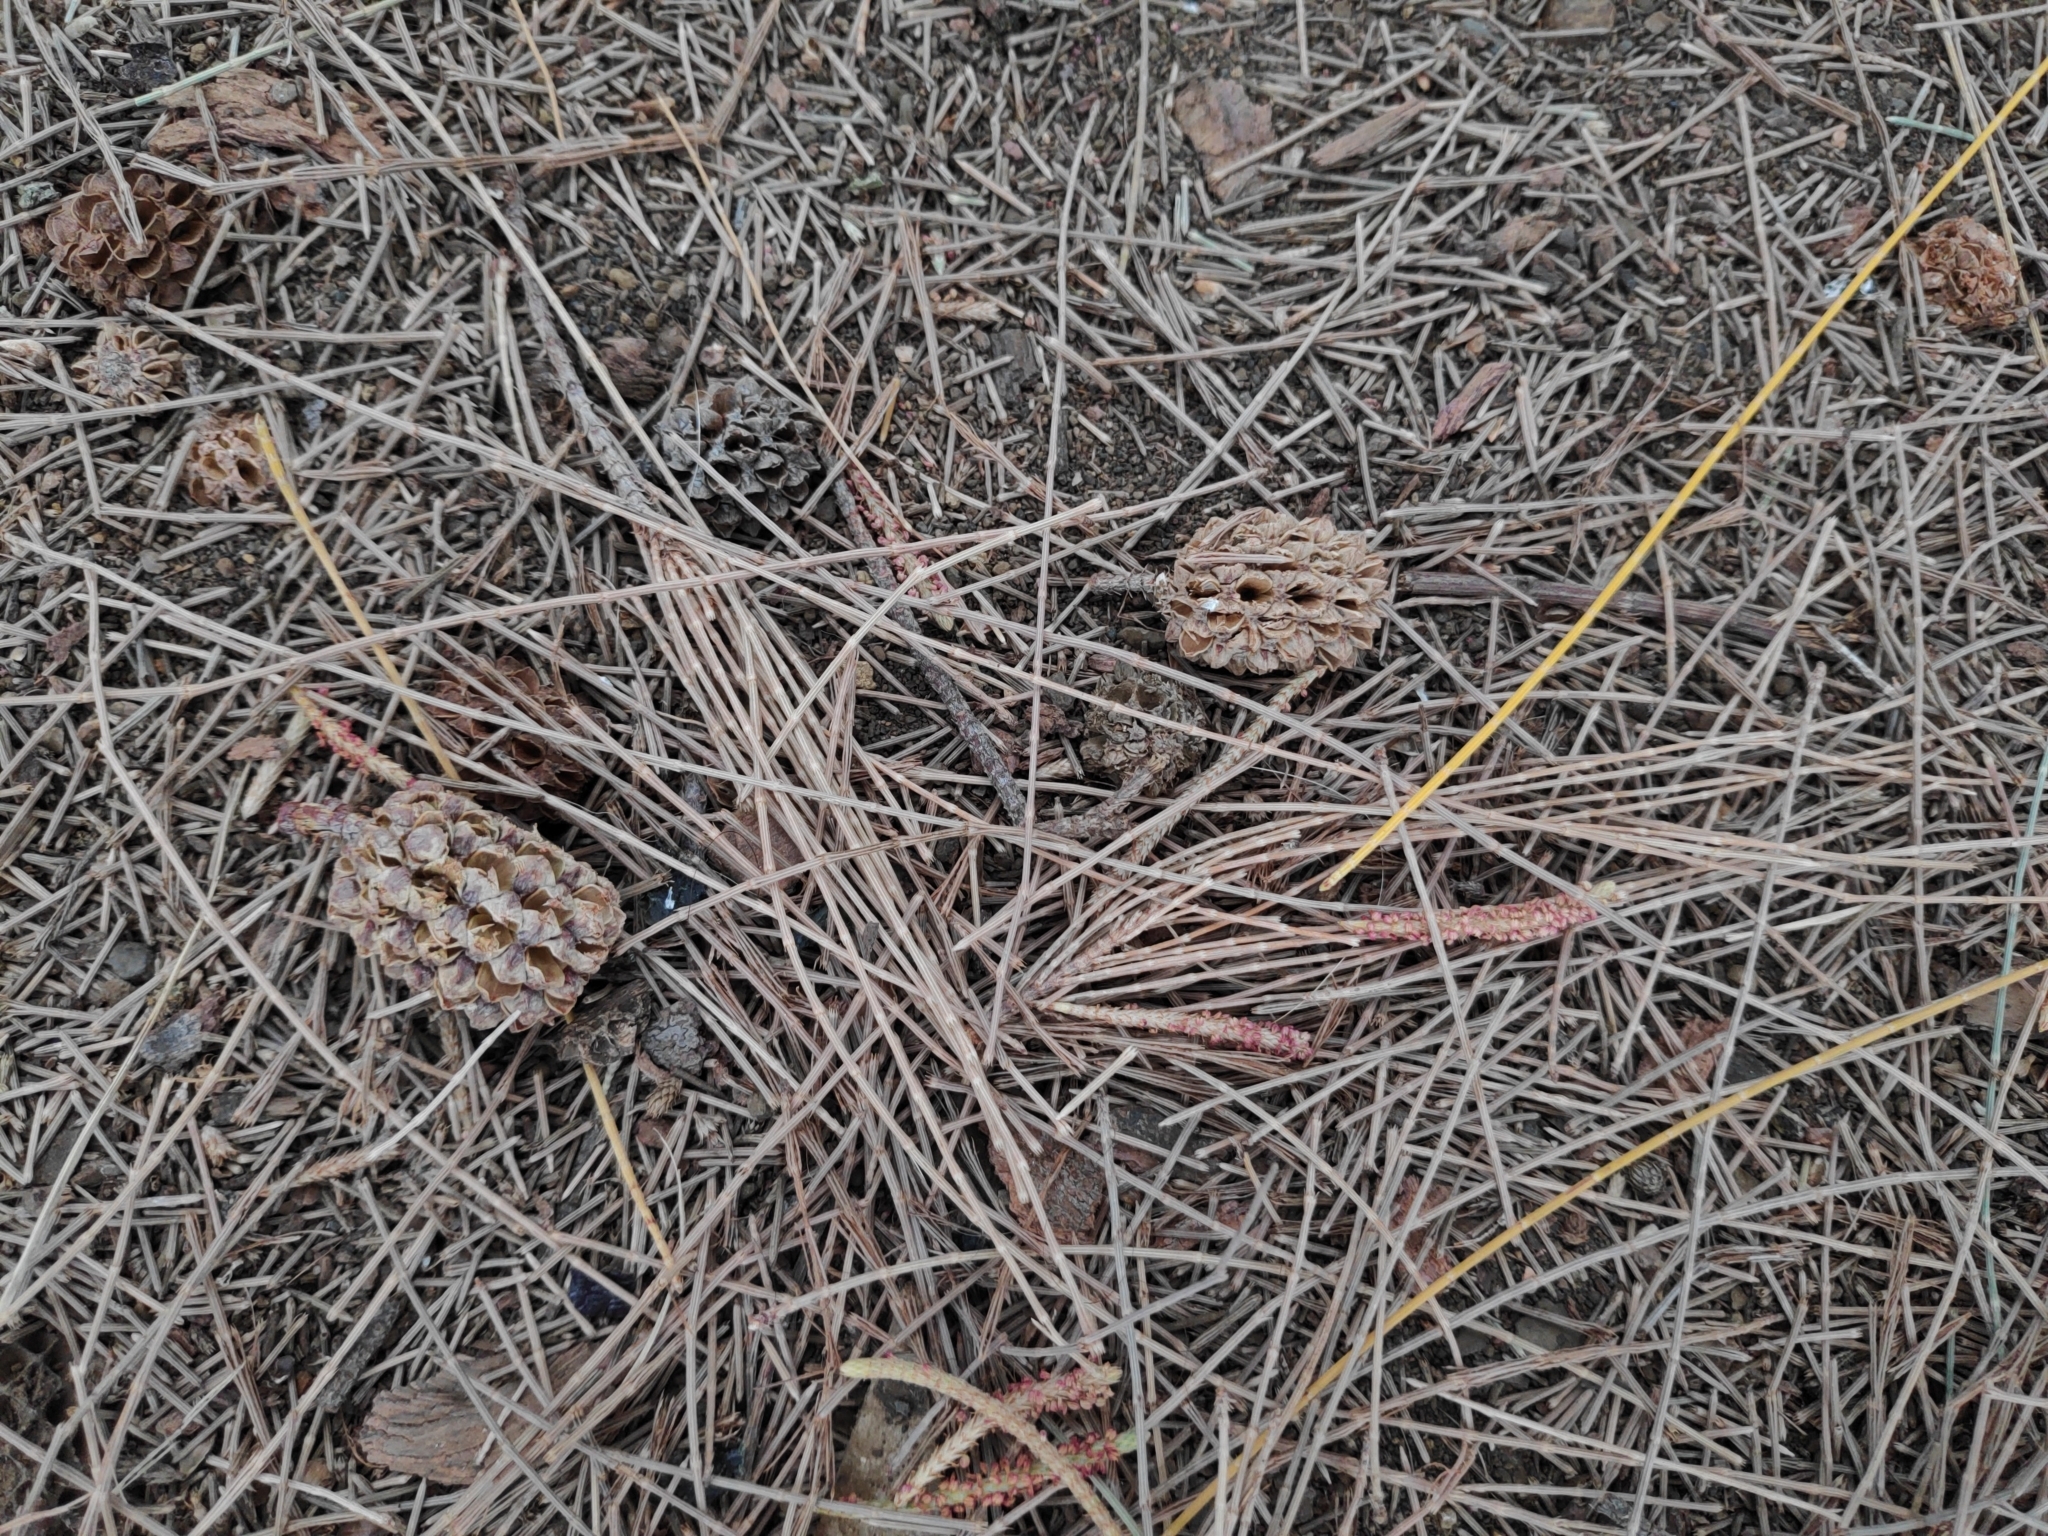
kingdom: Plantae
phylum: Tracheophyta
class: Magnoliopsida
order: Fagales
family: Casuarinaceae
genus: Casuarina
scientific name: Casuarina equisetifolia
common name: Beach sheoak
